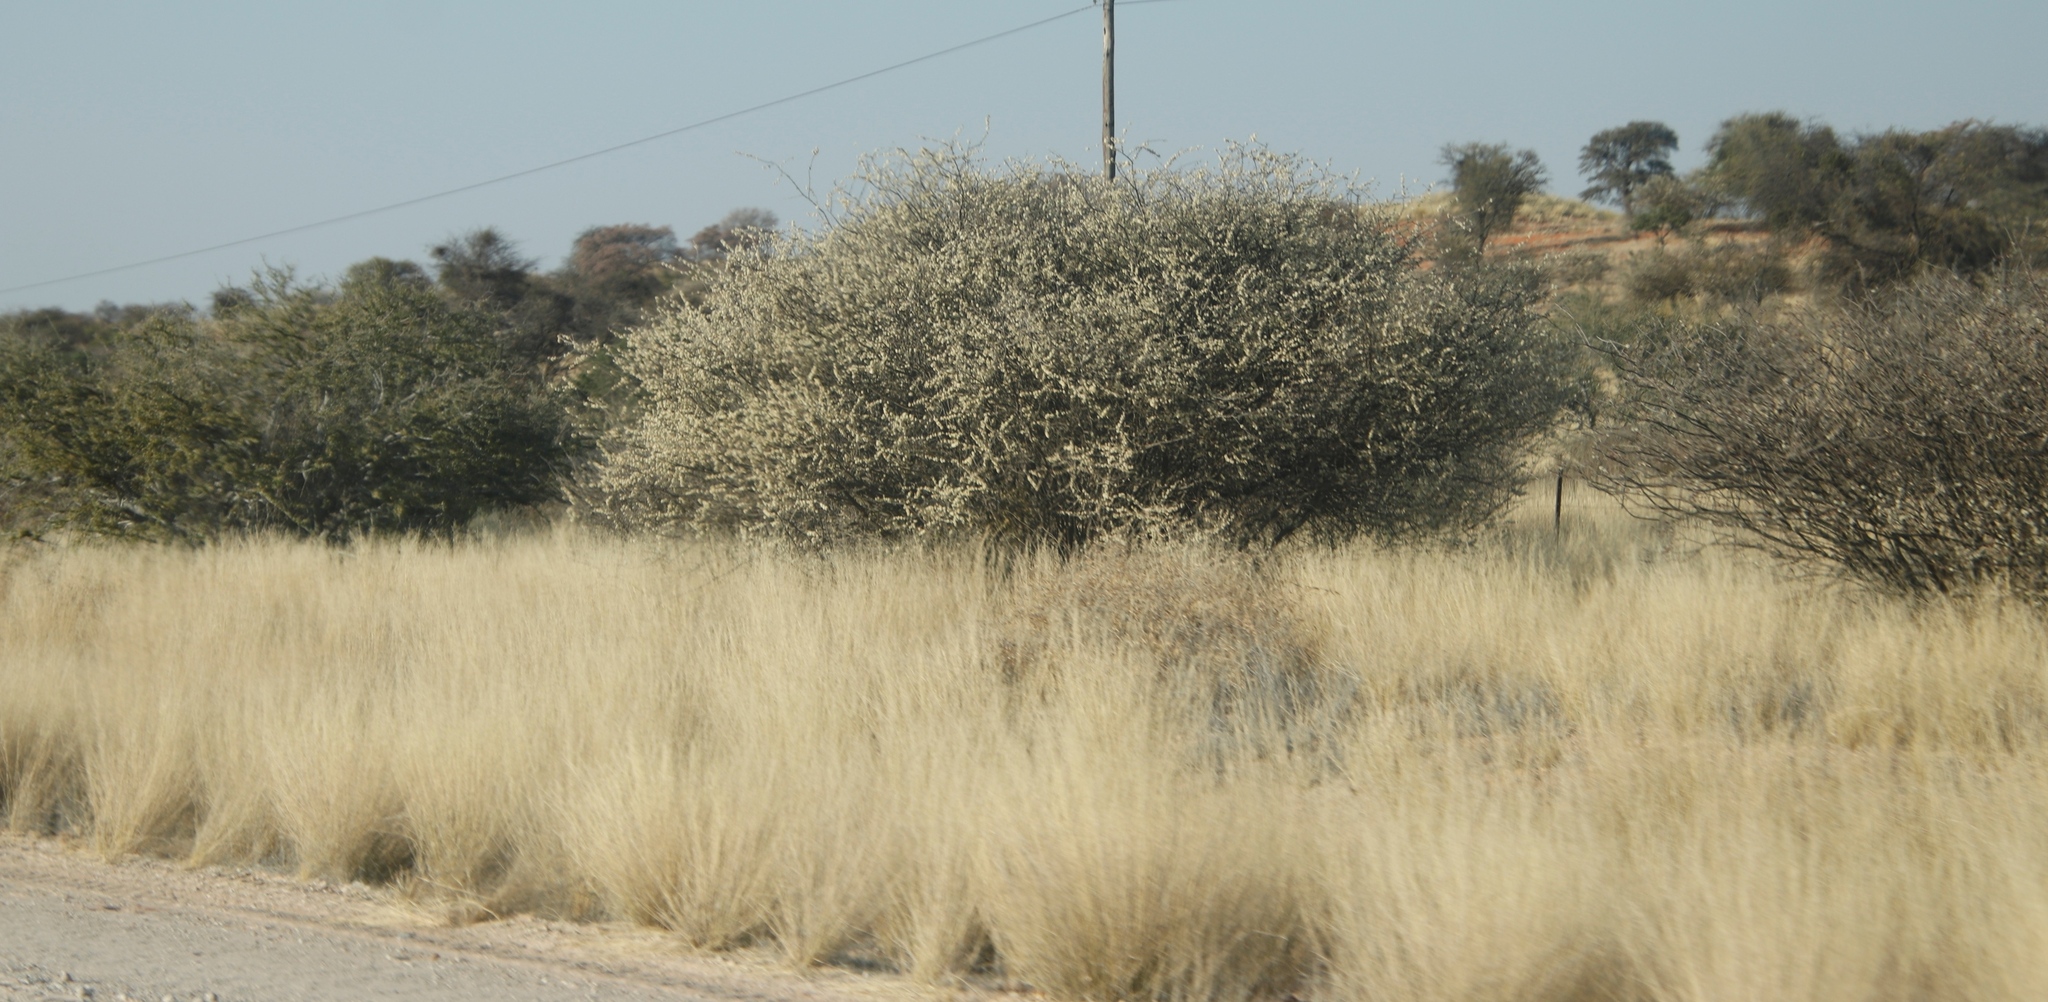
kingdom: Plantae
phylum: Tracheophyta
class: Magnoliopsida
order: Fabales
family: Fabaceae
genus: Senegalia
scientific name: Senegalia mellifera
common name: Hookthorn
